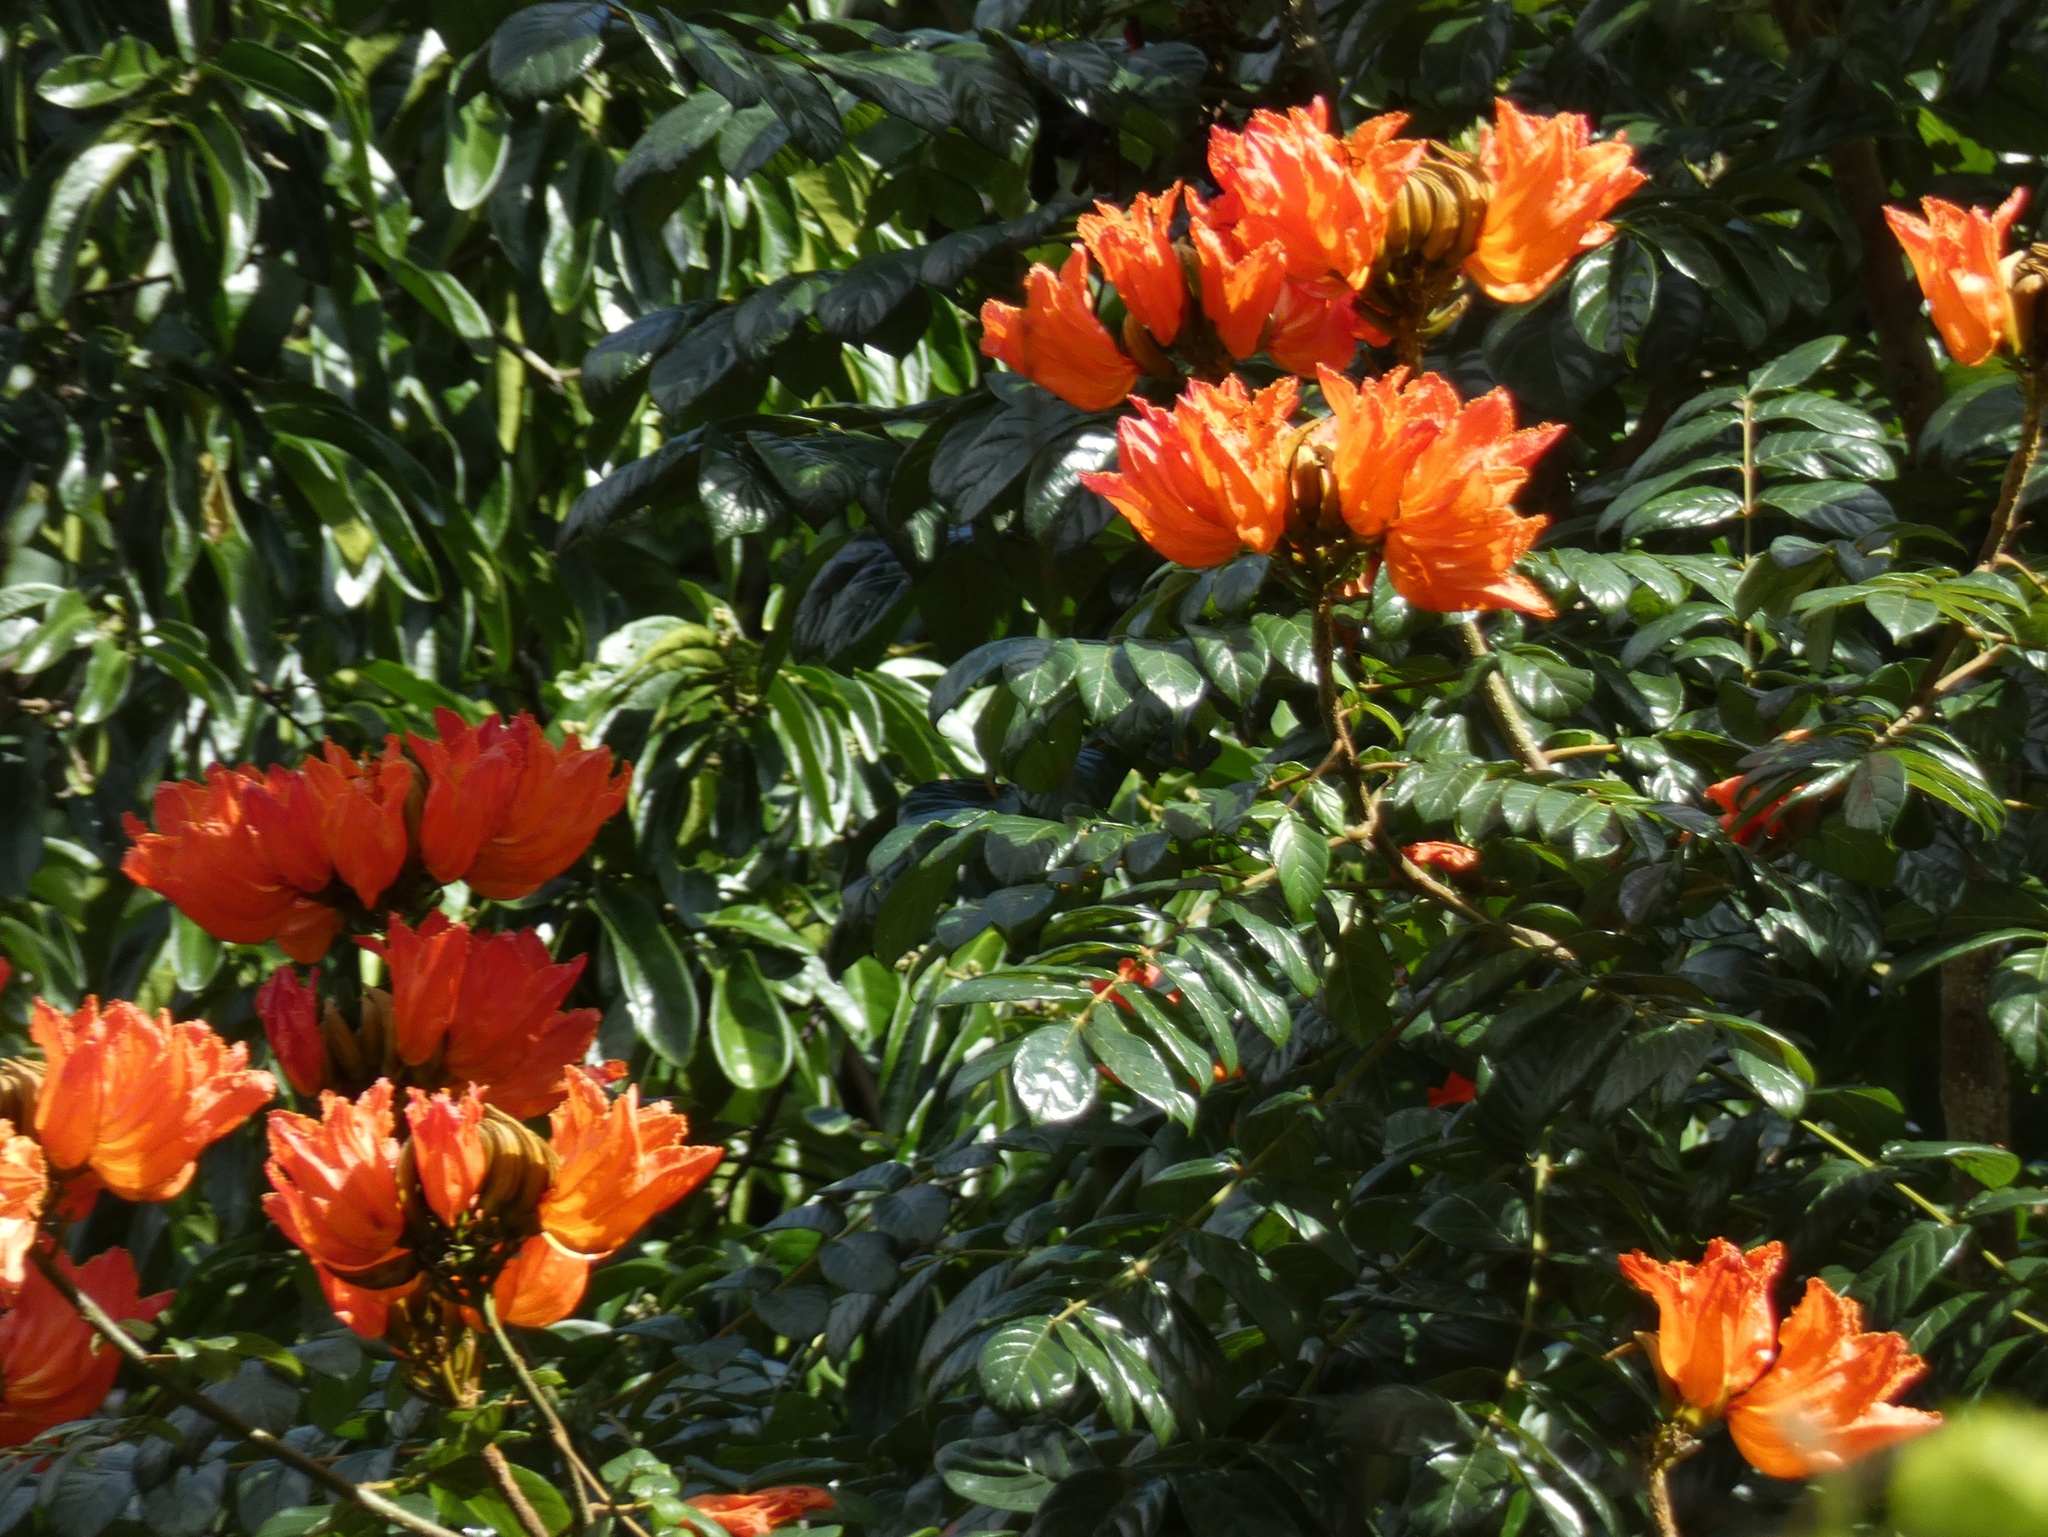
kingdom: Plantae
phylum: Tracheophyta
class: Magnoliopsida
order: Lamiales
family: Bignoniaceae
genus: Spathodea
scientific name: Spathodea campanulata
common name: African tuliptree
